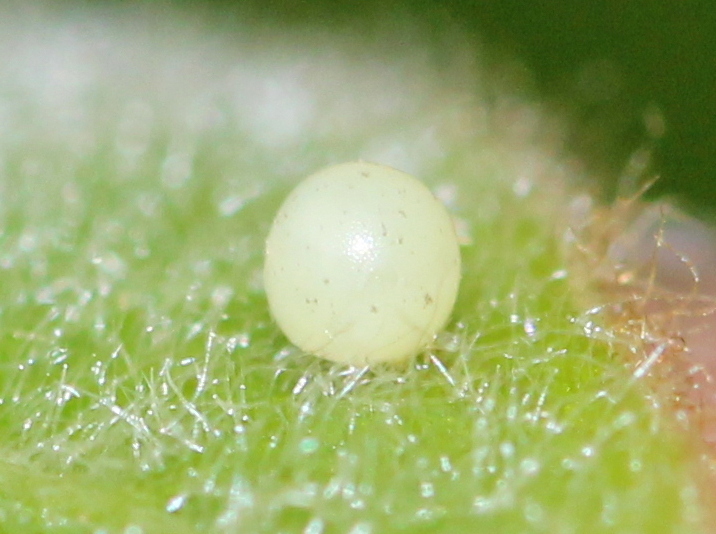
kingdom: Animalia
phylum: Arthropoda
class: Insecta
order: Lepidoptera
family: Papilionidae
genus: Graphium
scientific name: Graphium nomius
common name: Spot swordtail
